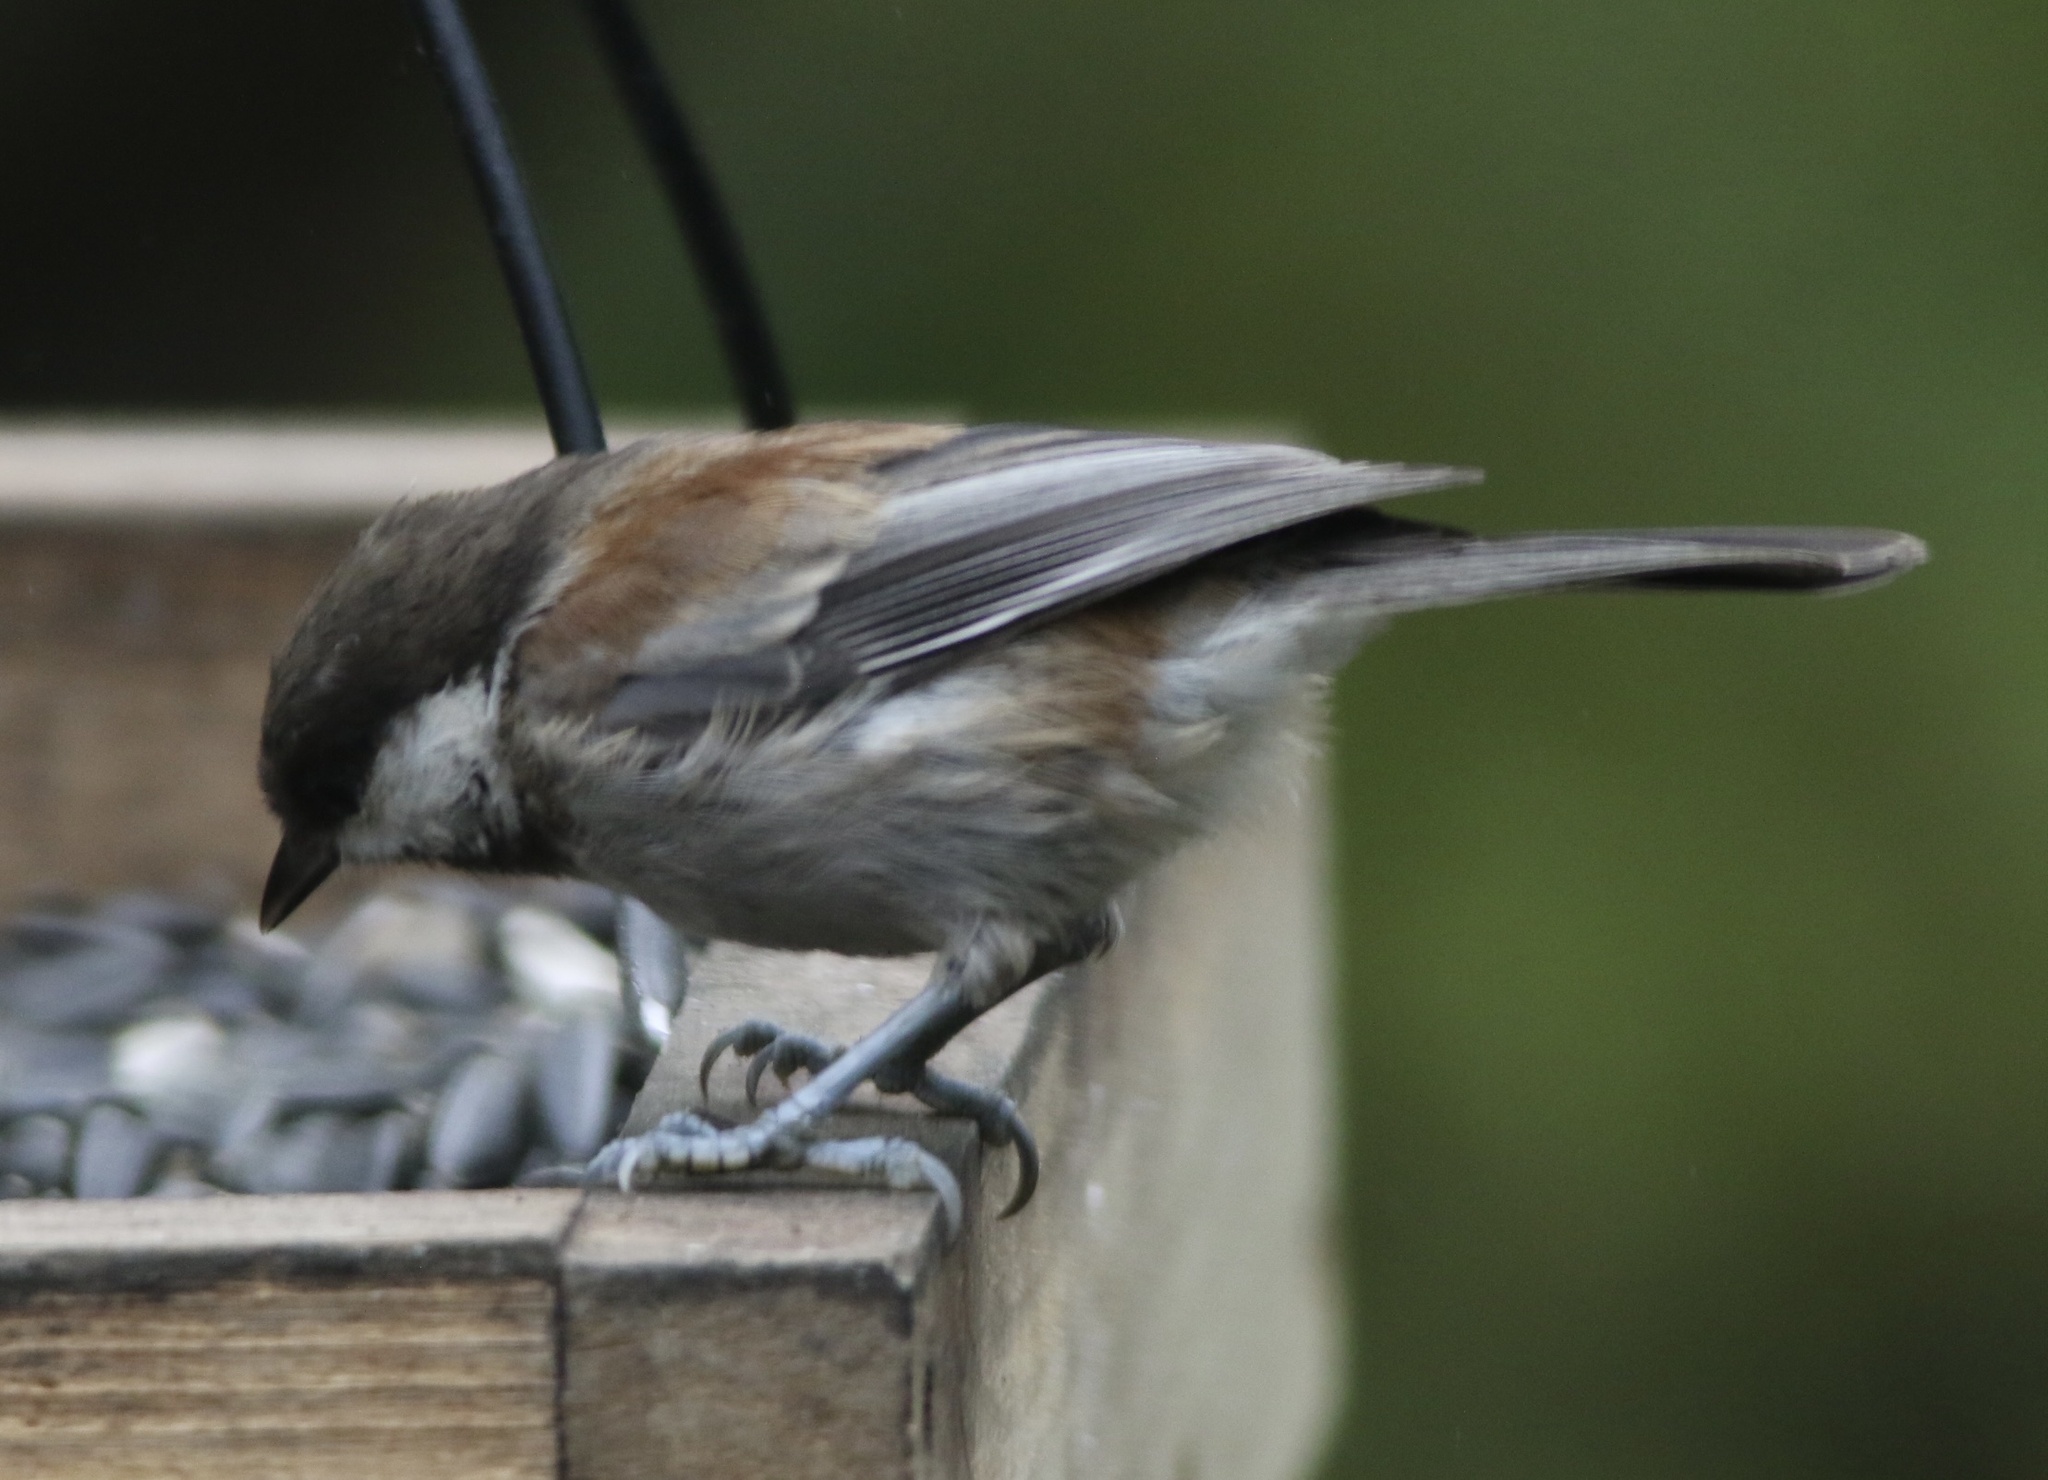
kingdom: Animalia
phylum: Chordata
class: Aves
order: Passeriformes
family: Paridae
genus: Poecile
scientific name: Poecile rufescens
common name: Chestnut-backed chickadee
